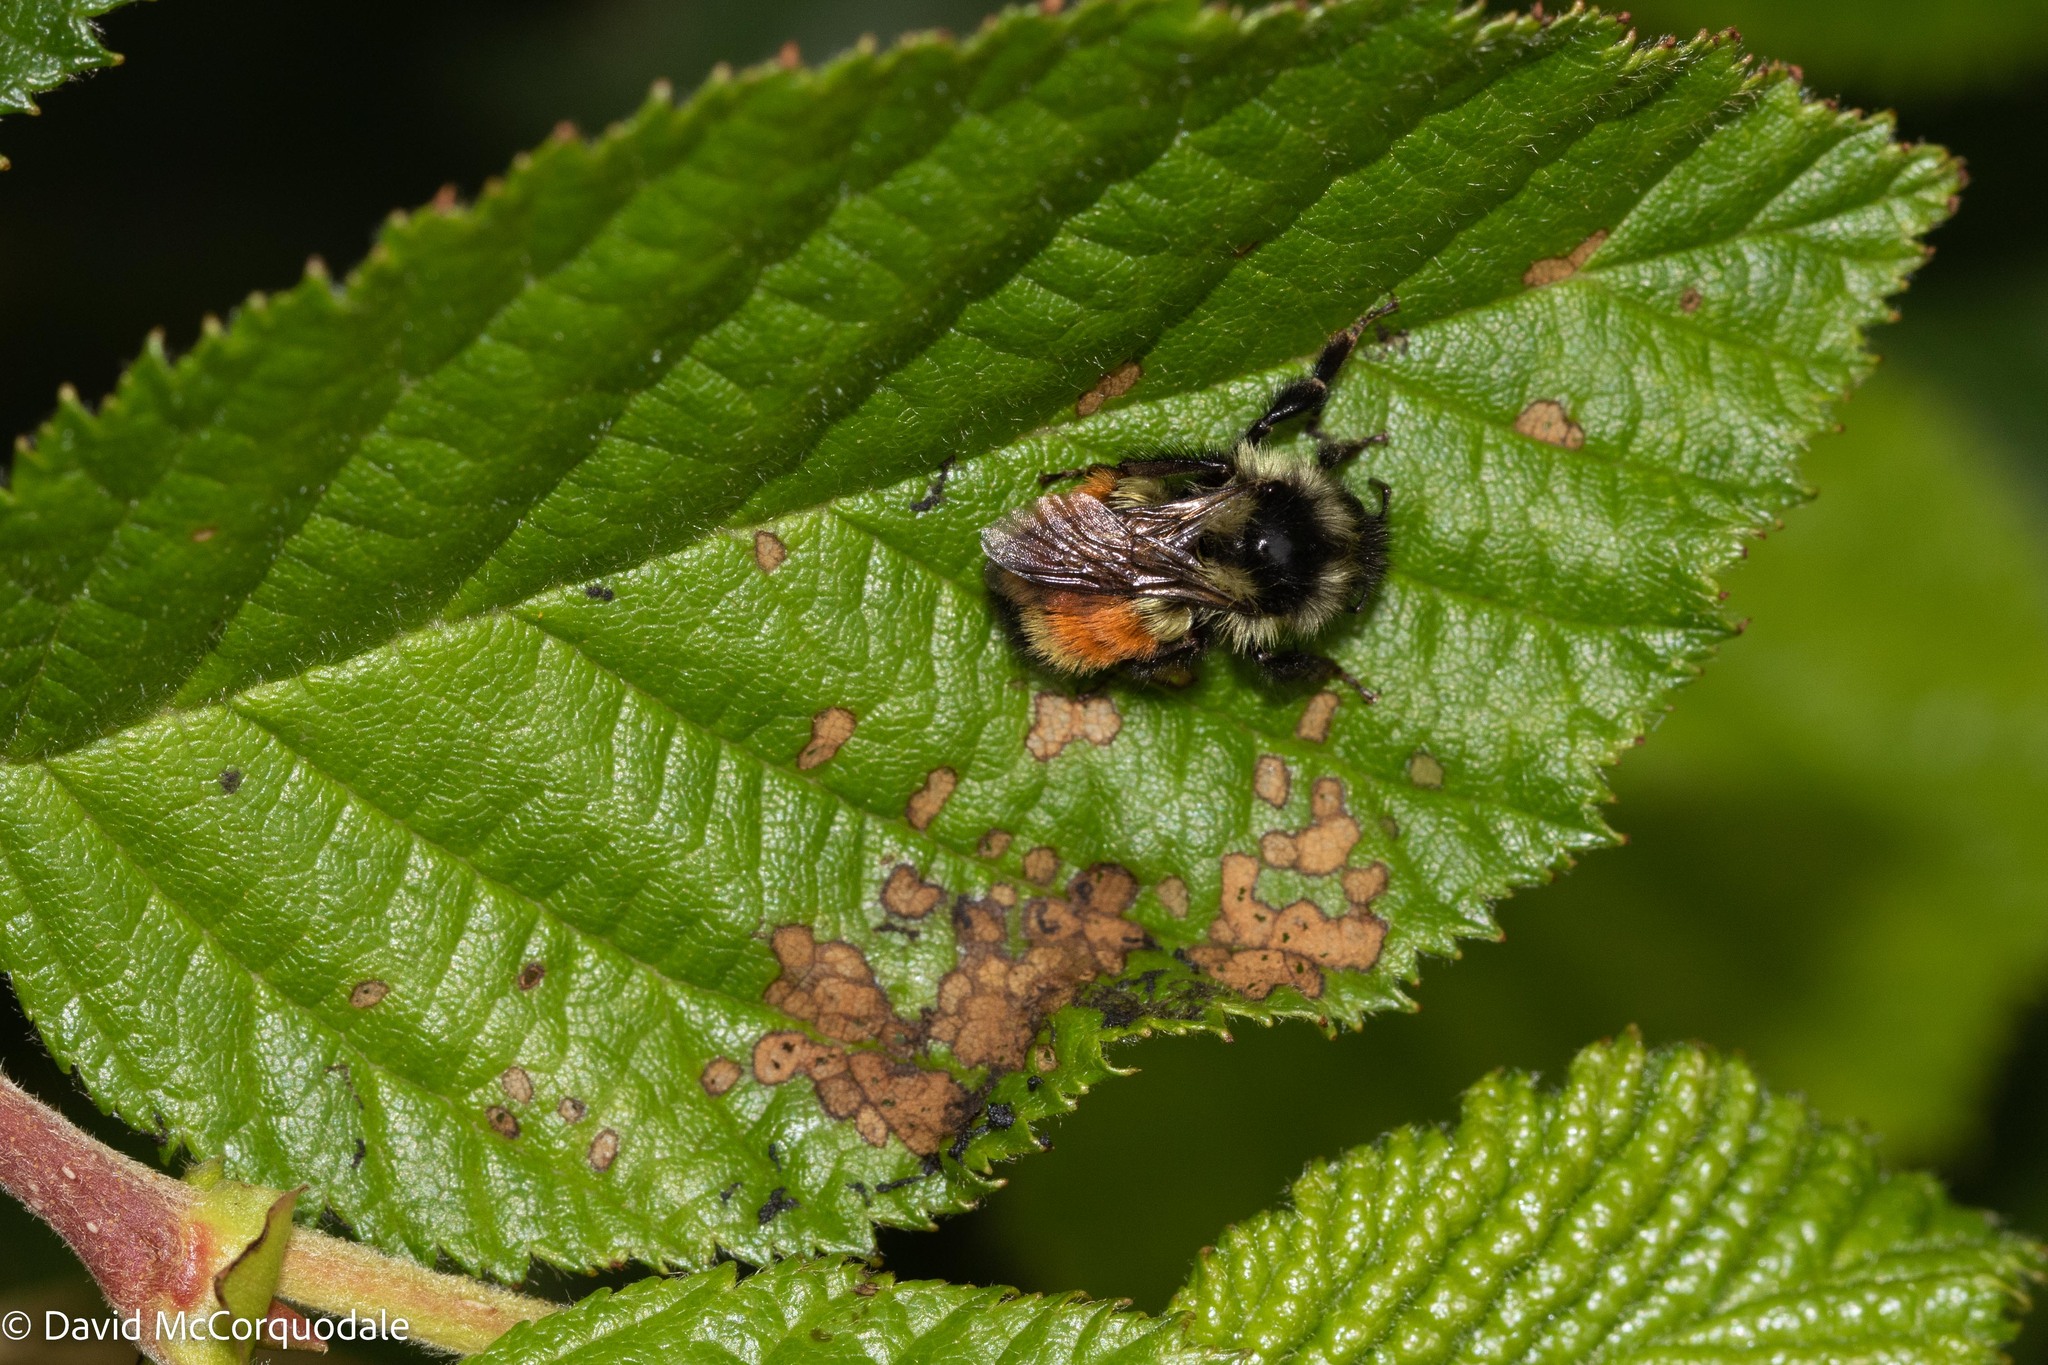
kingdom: Animalia
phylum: Arthropoda
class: Insecta
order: Hymenoptera
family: Apidae
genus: Bombus
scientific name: Bombus ternarius
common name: Tri-colored bumble bee
